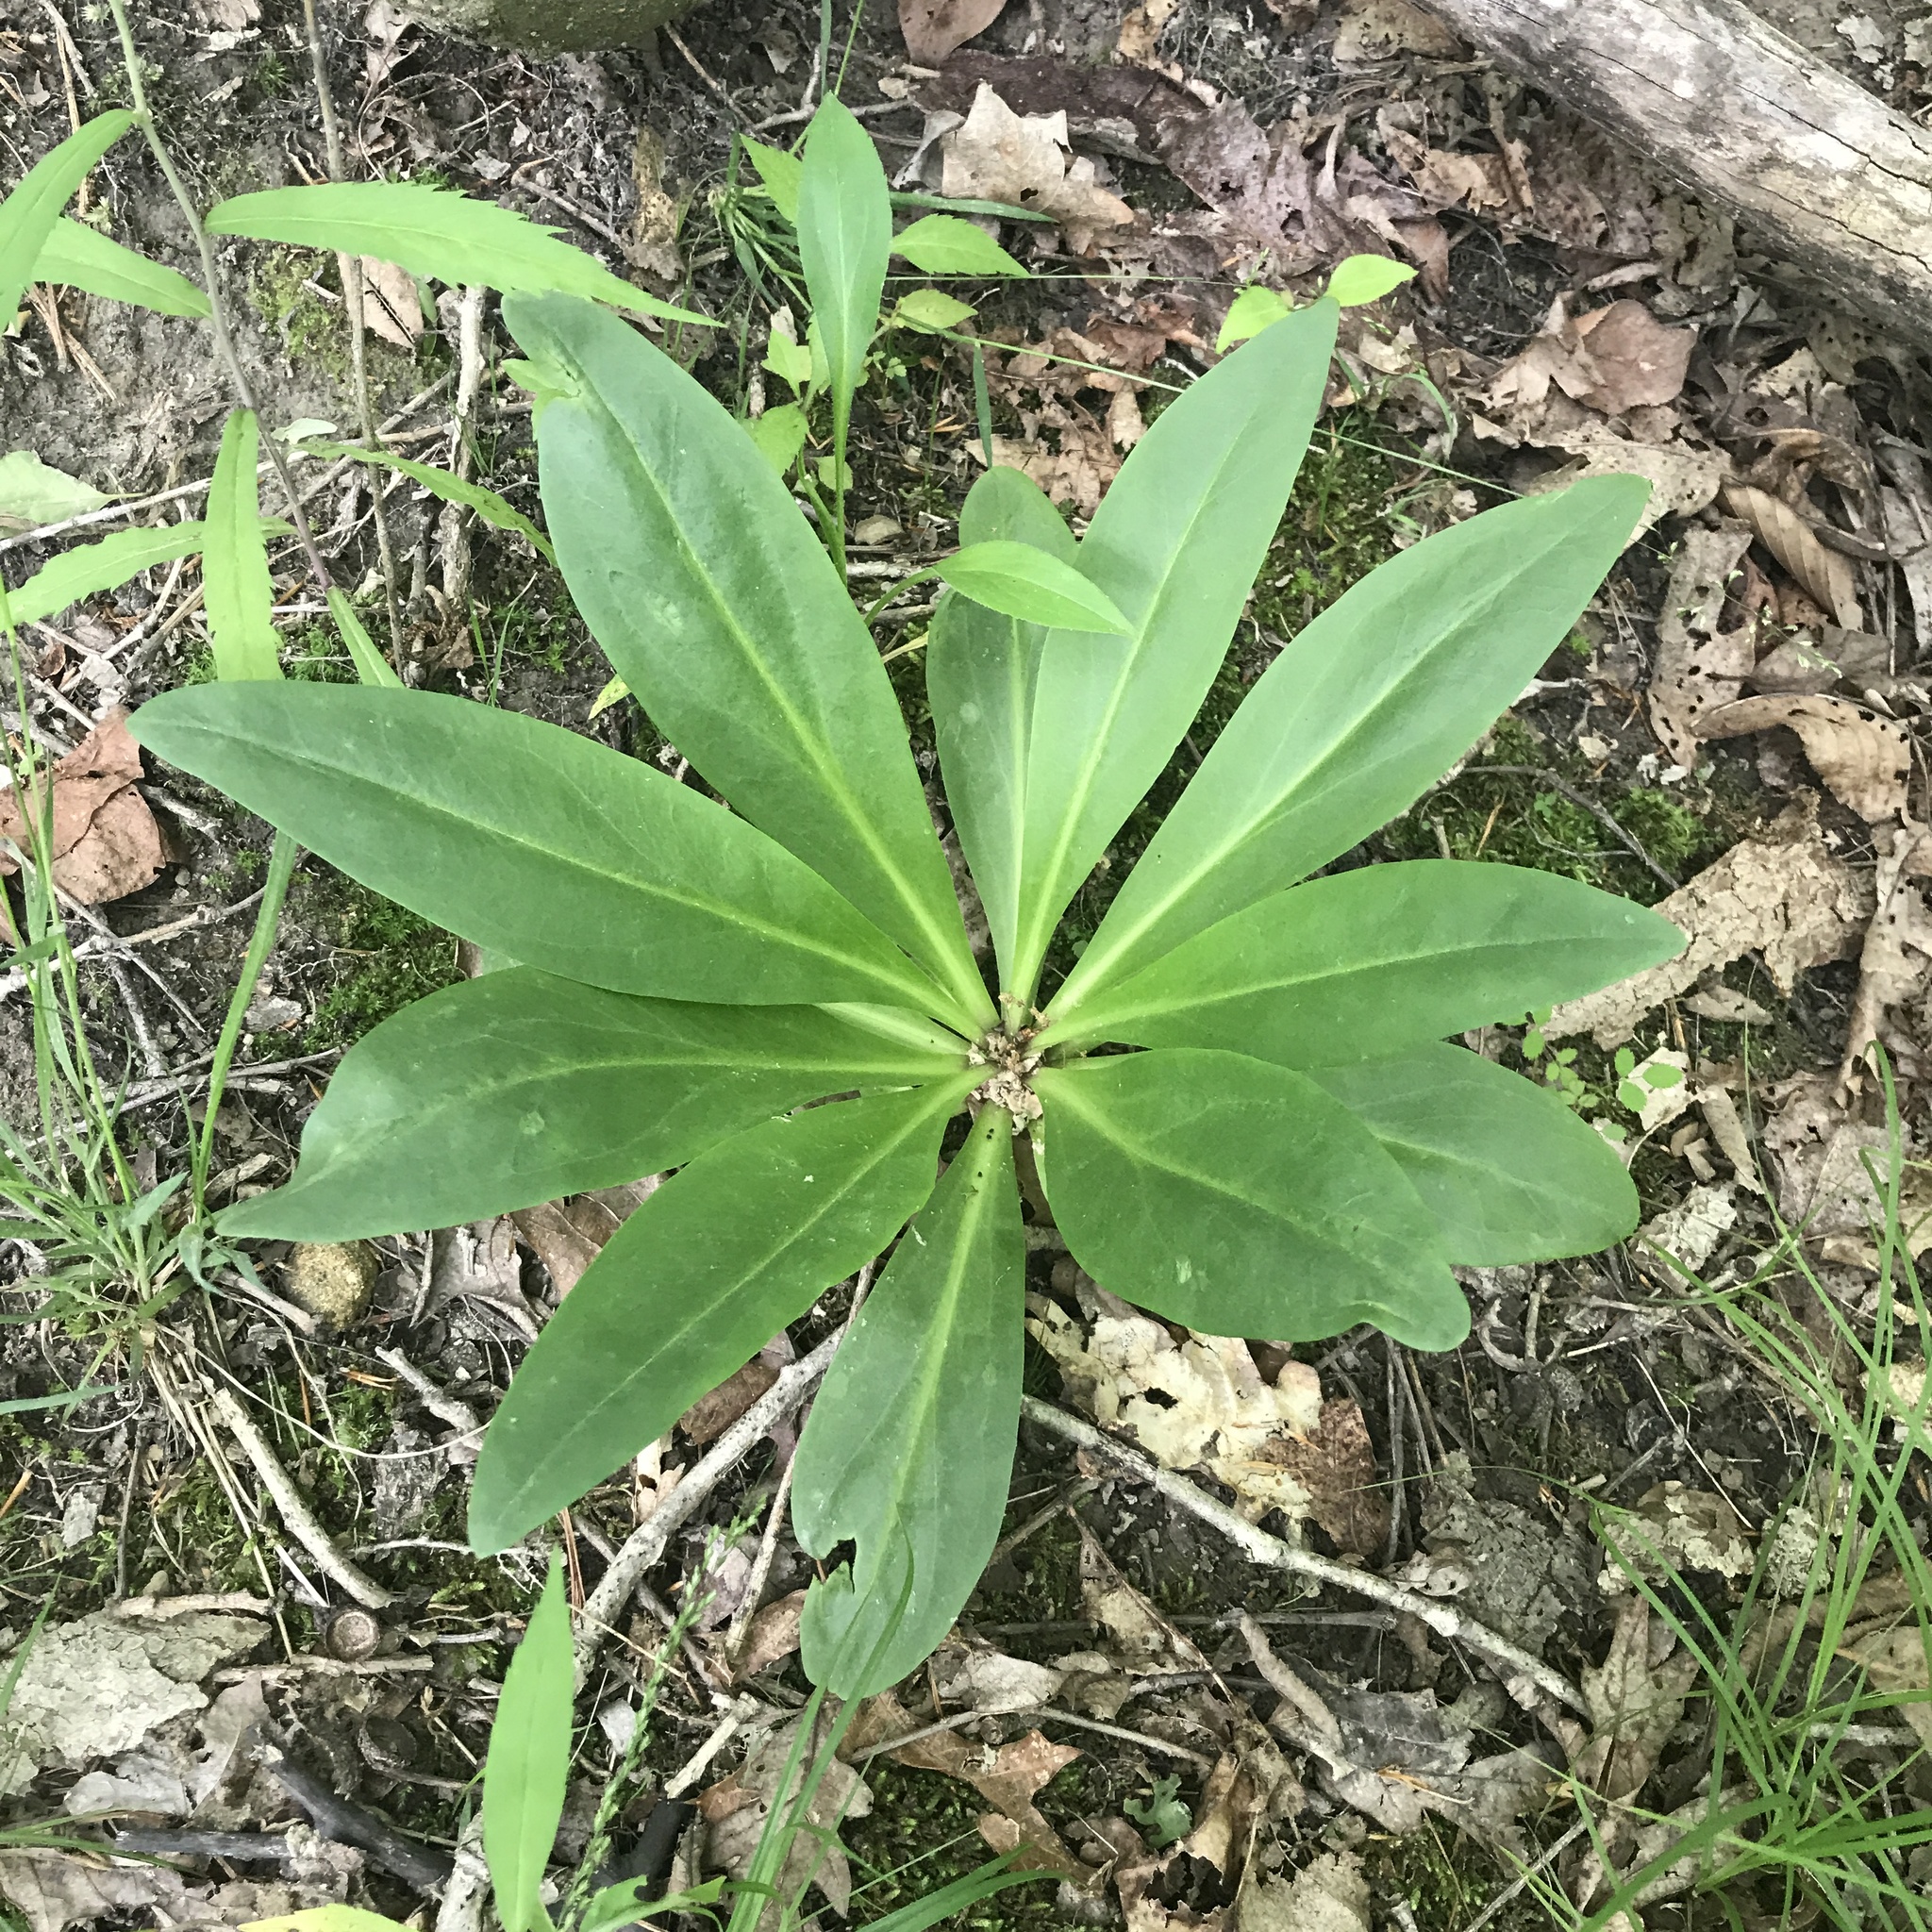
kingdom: Plantae
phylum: Tracheophyta
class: Magnoliopsida
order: Gentianales
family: Gentianaceae
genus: Frasera
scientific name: Frasera caroliniensis
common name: American columbo
